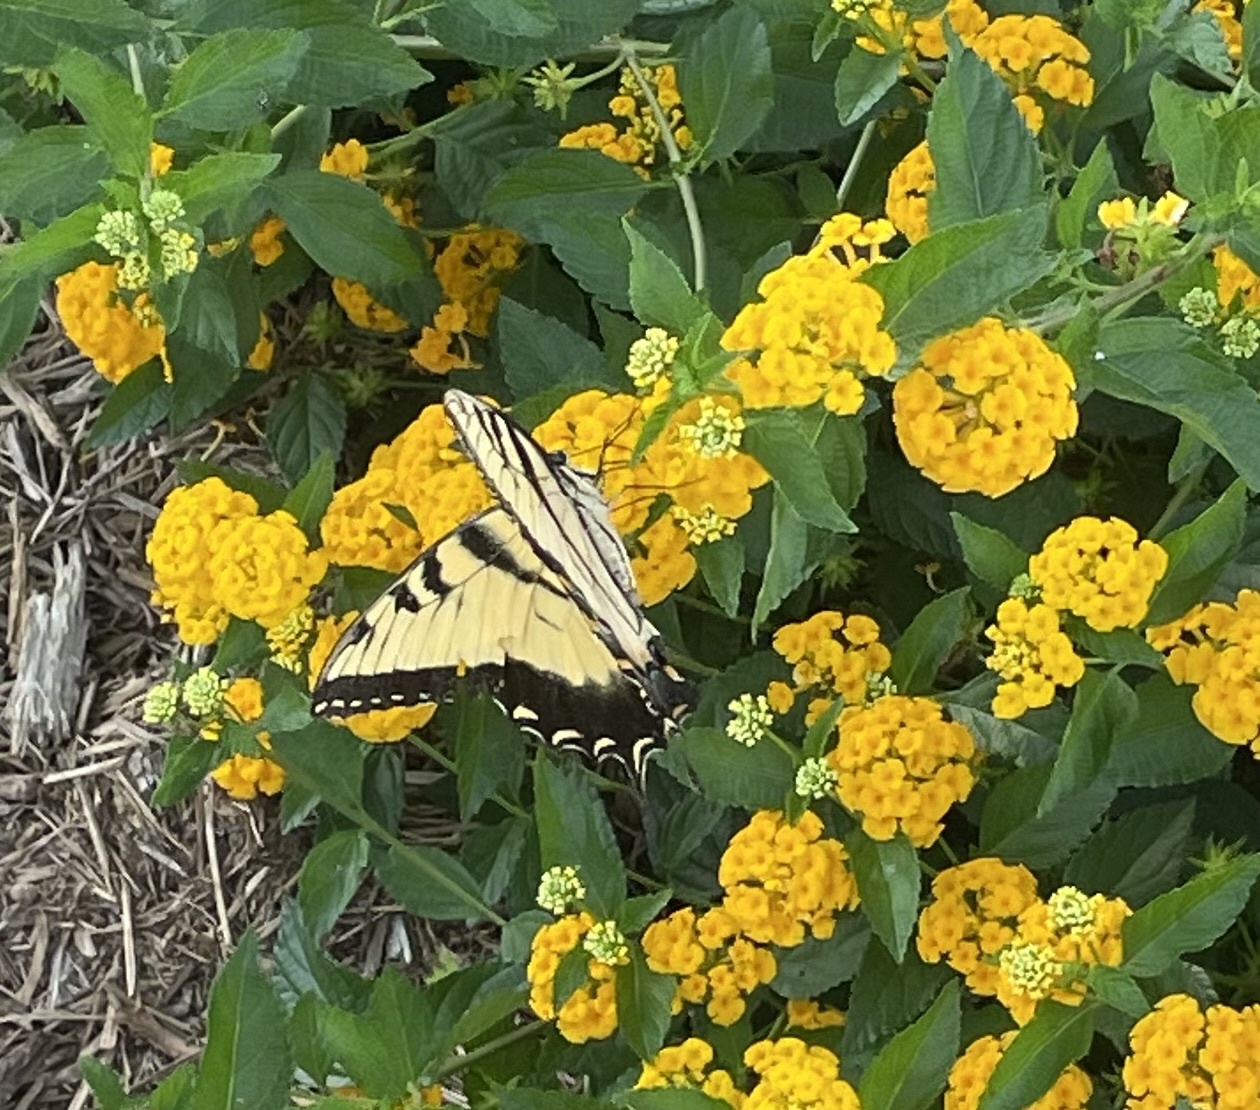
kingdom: Animalia
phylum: Arthropoda
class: Insecta
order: Lepidoptera
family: Papilionidae
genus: Papilio
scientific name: Papilio glaucus
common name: Tiger swallowtail
